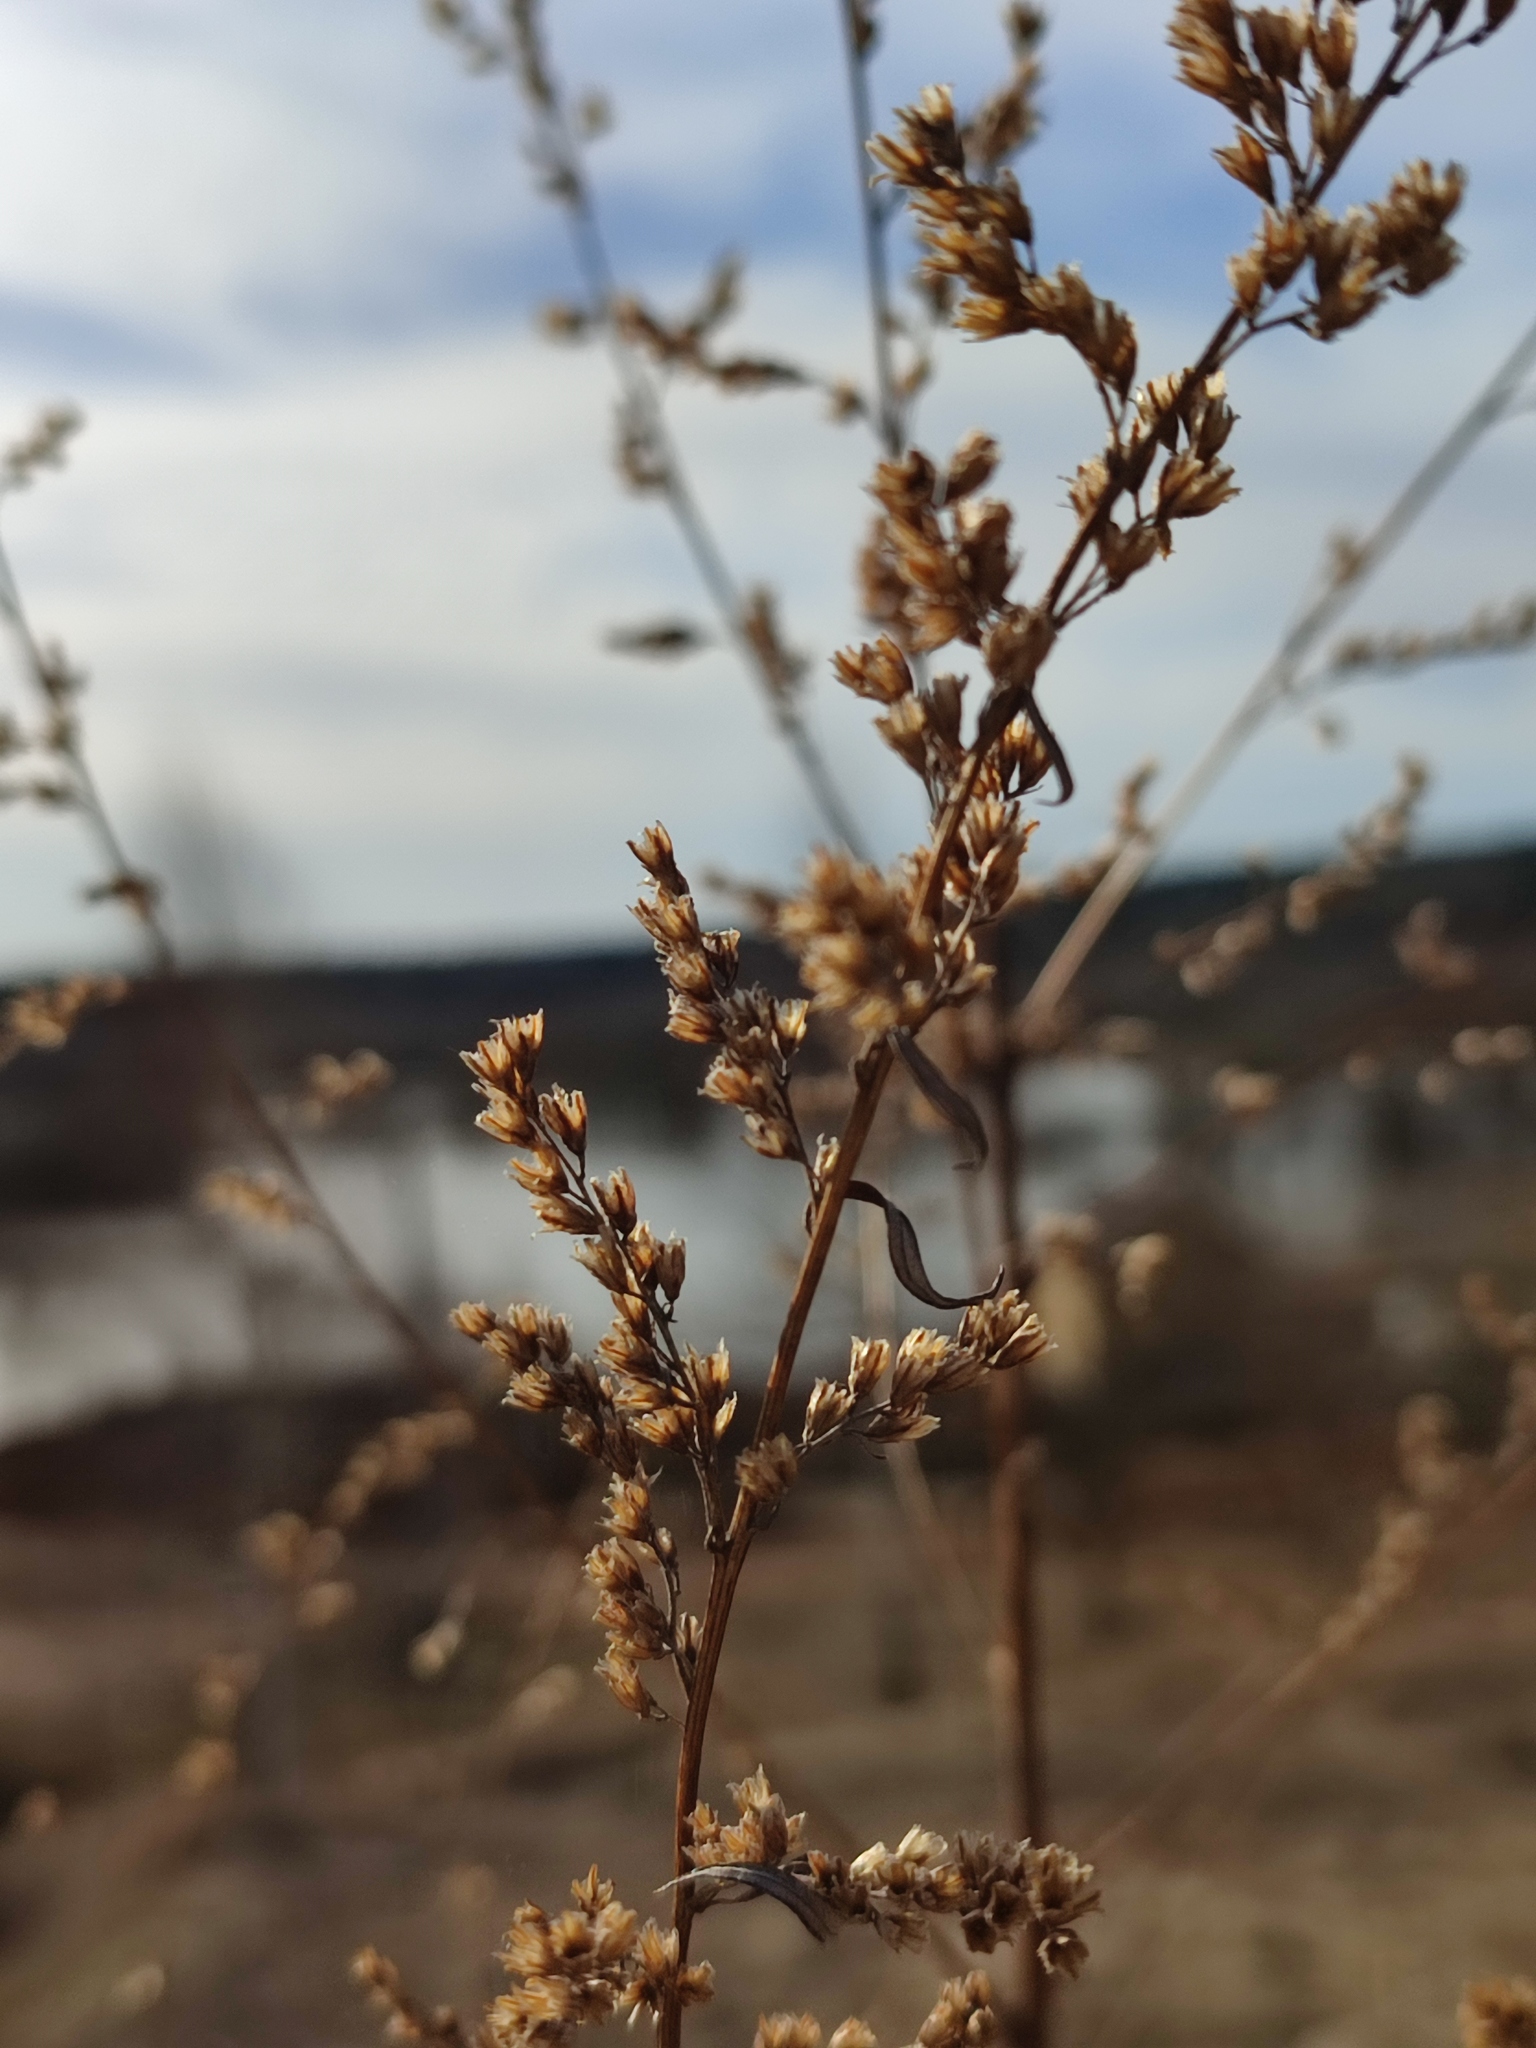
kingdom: Plantae
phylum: Tracheophyta
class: Magnoliopsida
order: Asterales
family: Asteraceae
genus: Artemisia
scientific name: Artemisia vulgaris
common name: Mugwort
